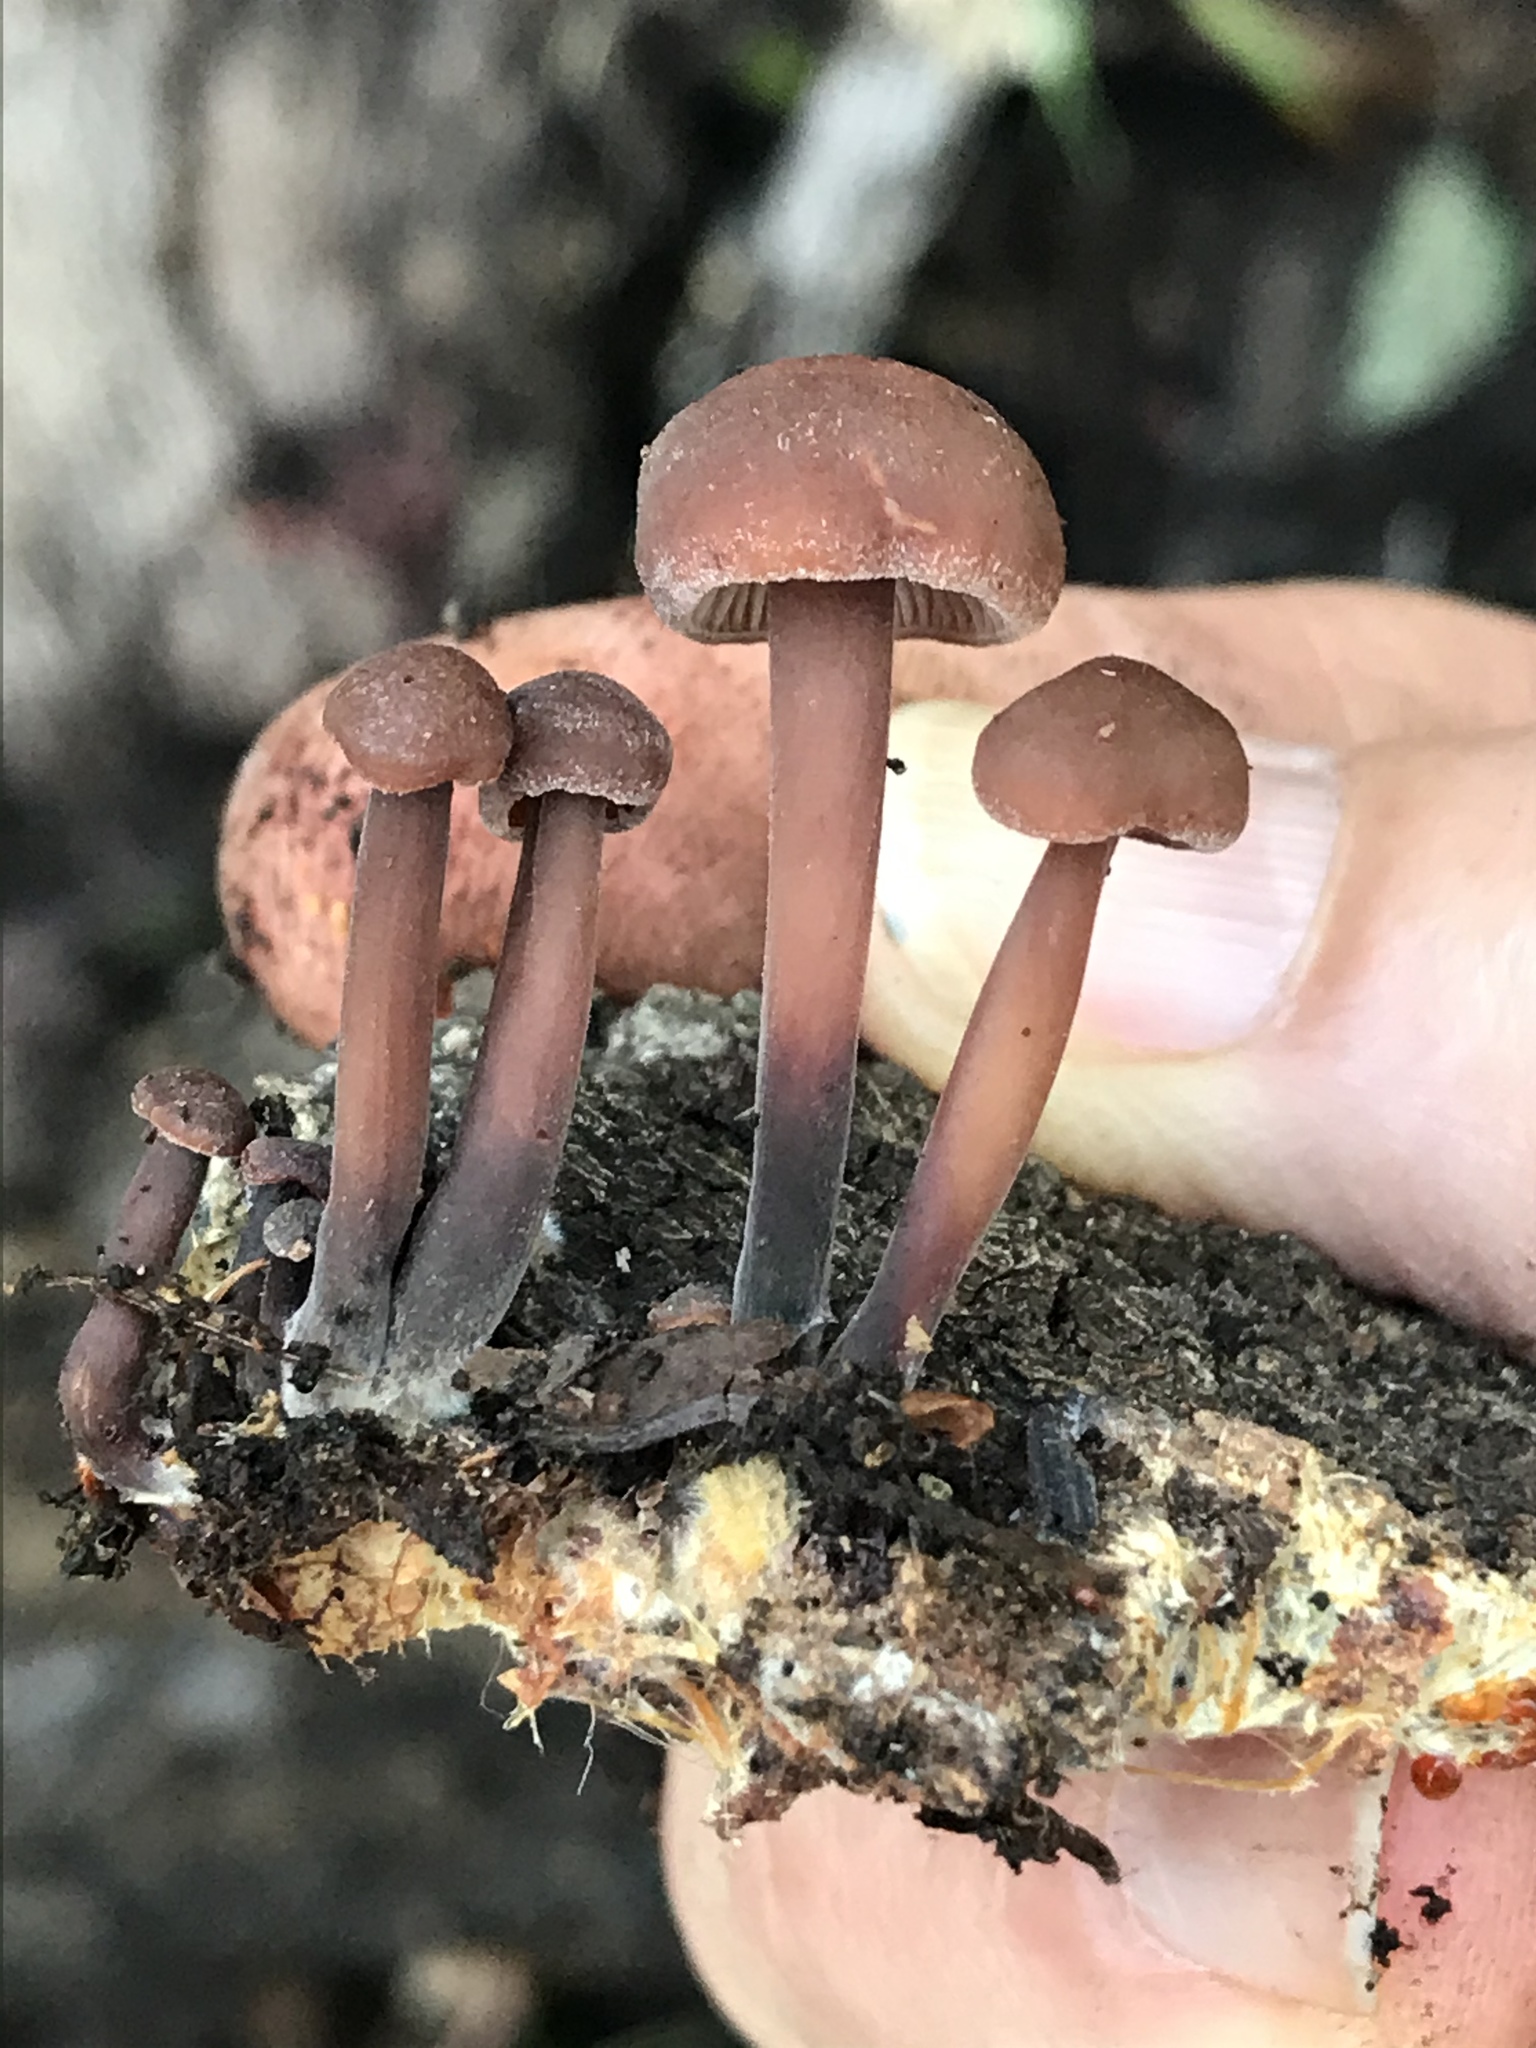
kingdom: Fungi
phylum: Basidiomycota
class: Agaricomycetes
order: Agaricales
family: Omphalotaceae
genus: Gymnopus
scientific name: Gymnopus brassicolens
